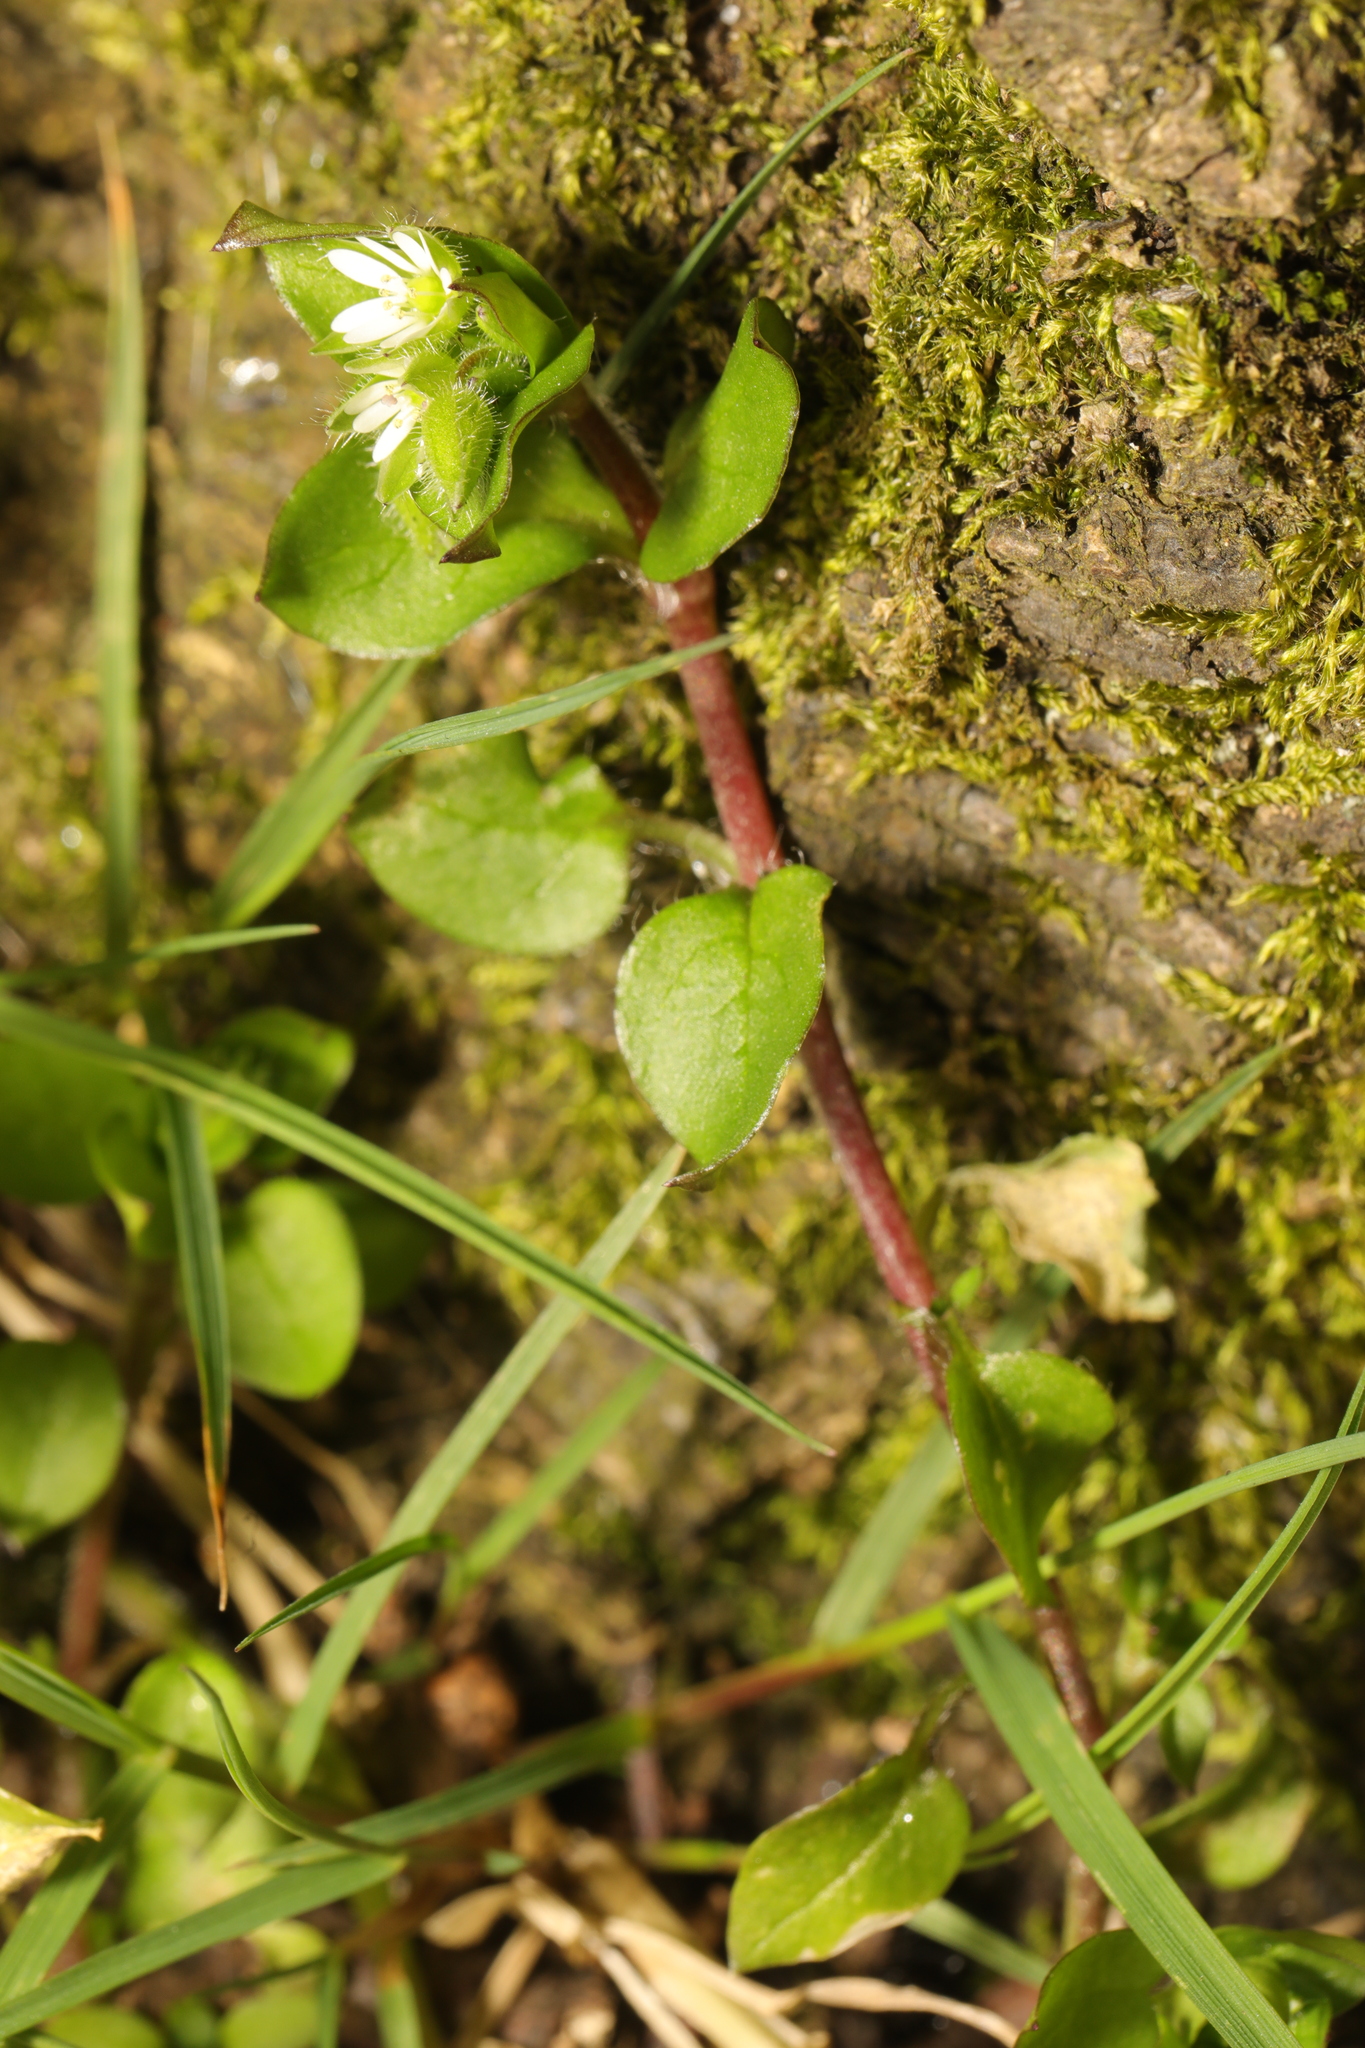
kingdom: Plantae
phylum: Tracheophyta
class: Magnoliopsida
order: Caryophyllales
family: Caryophyllaceae
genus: Stellaria
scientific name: Stellaria media
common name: Common chickweed
